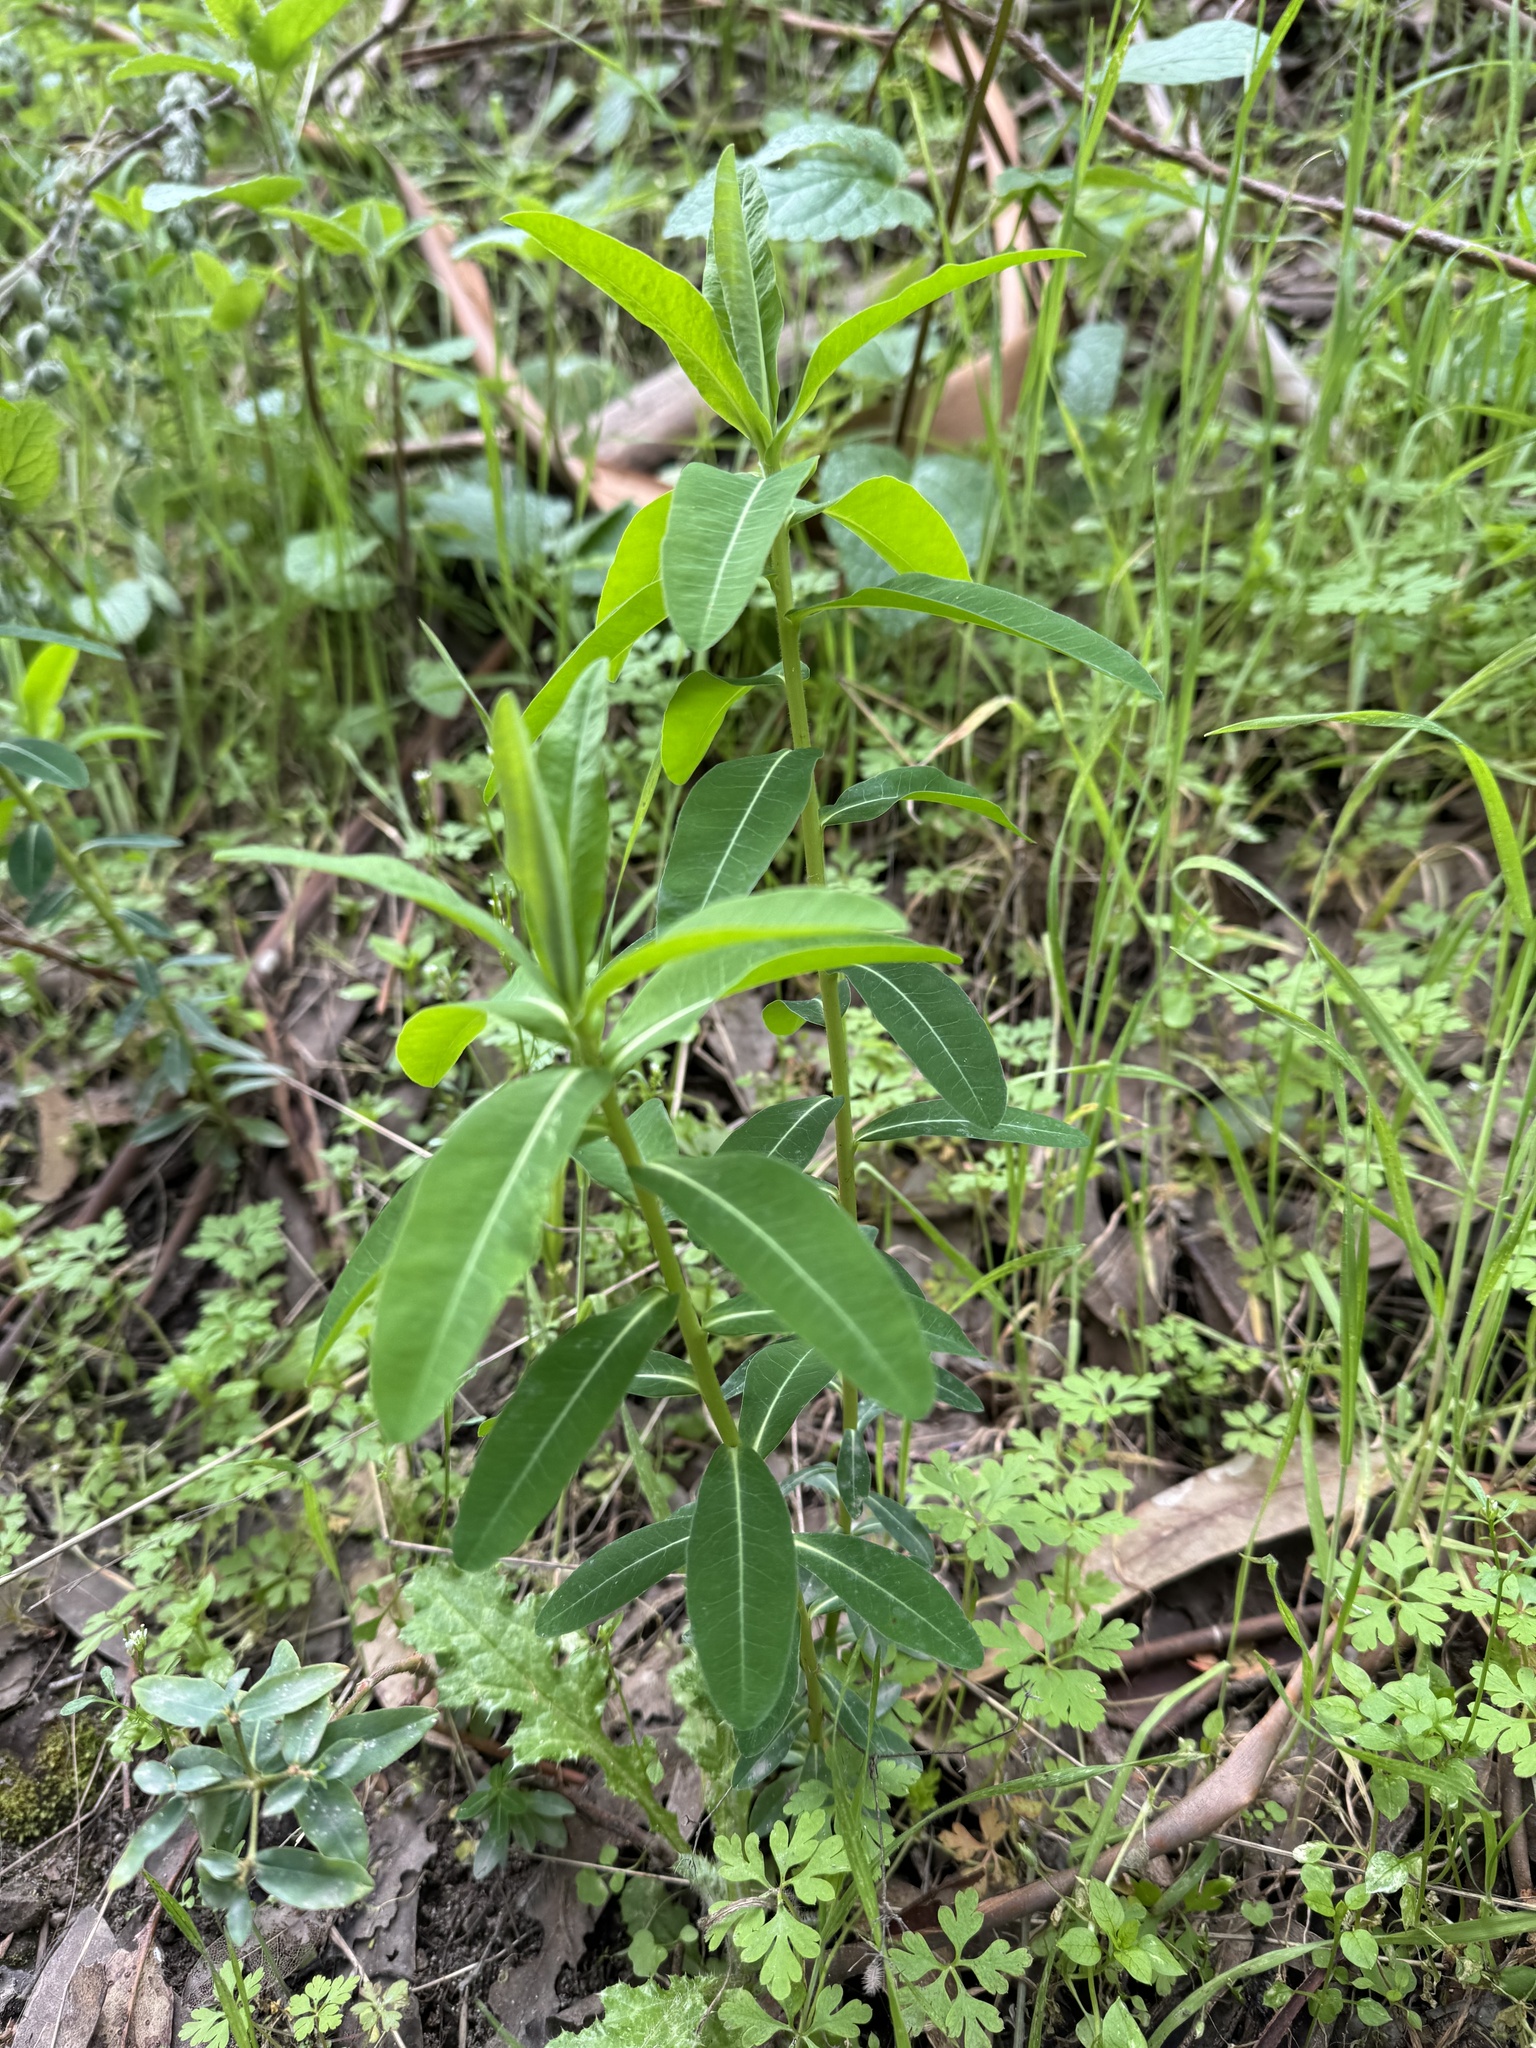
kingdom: Plantae
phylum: Tracheophyta
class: Magnoliopsida
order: Malpighiales
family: Euphorbiaceae
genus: Euphorbia
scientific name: Euphorbia oblongata
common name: Balkan spurge
